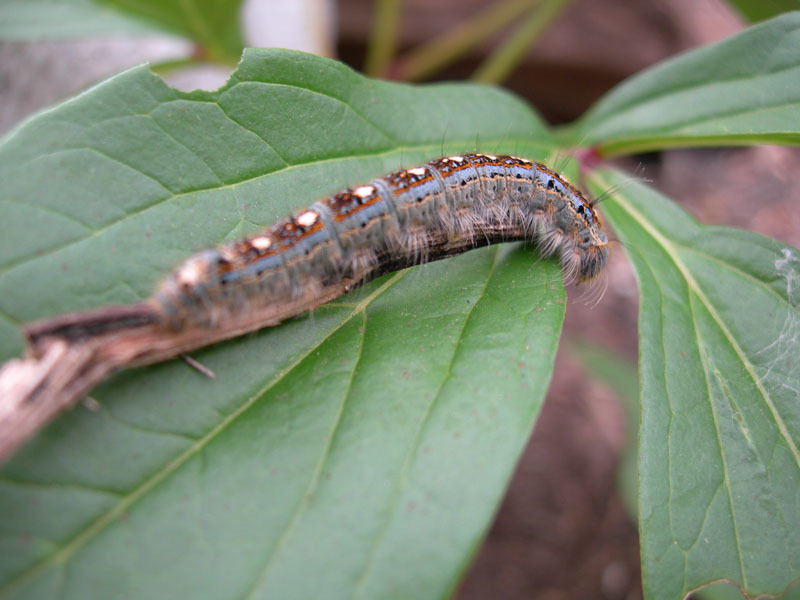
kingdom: Animalia
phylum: Arthropoda
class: Insecta
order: Lepidoptera
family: Lasiocampidae
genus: Malacosoma
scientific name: Malacosoma disstria
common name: Forest tent caterpillar
